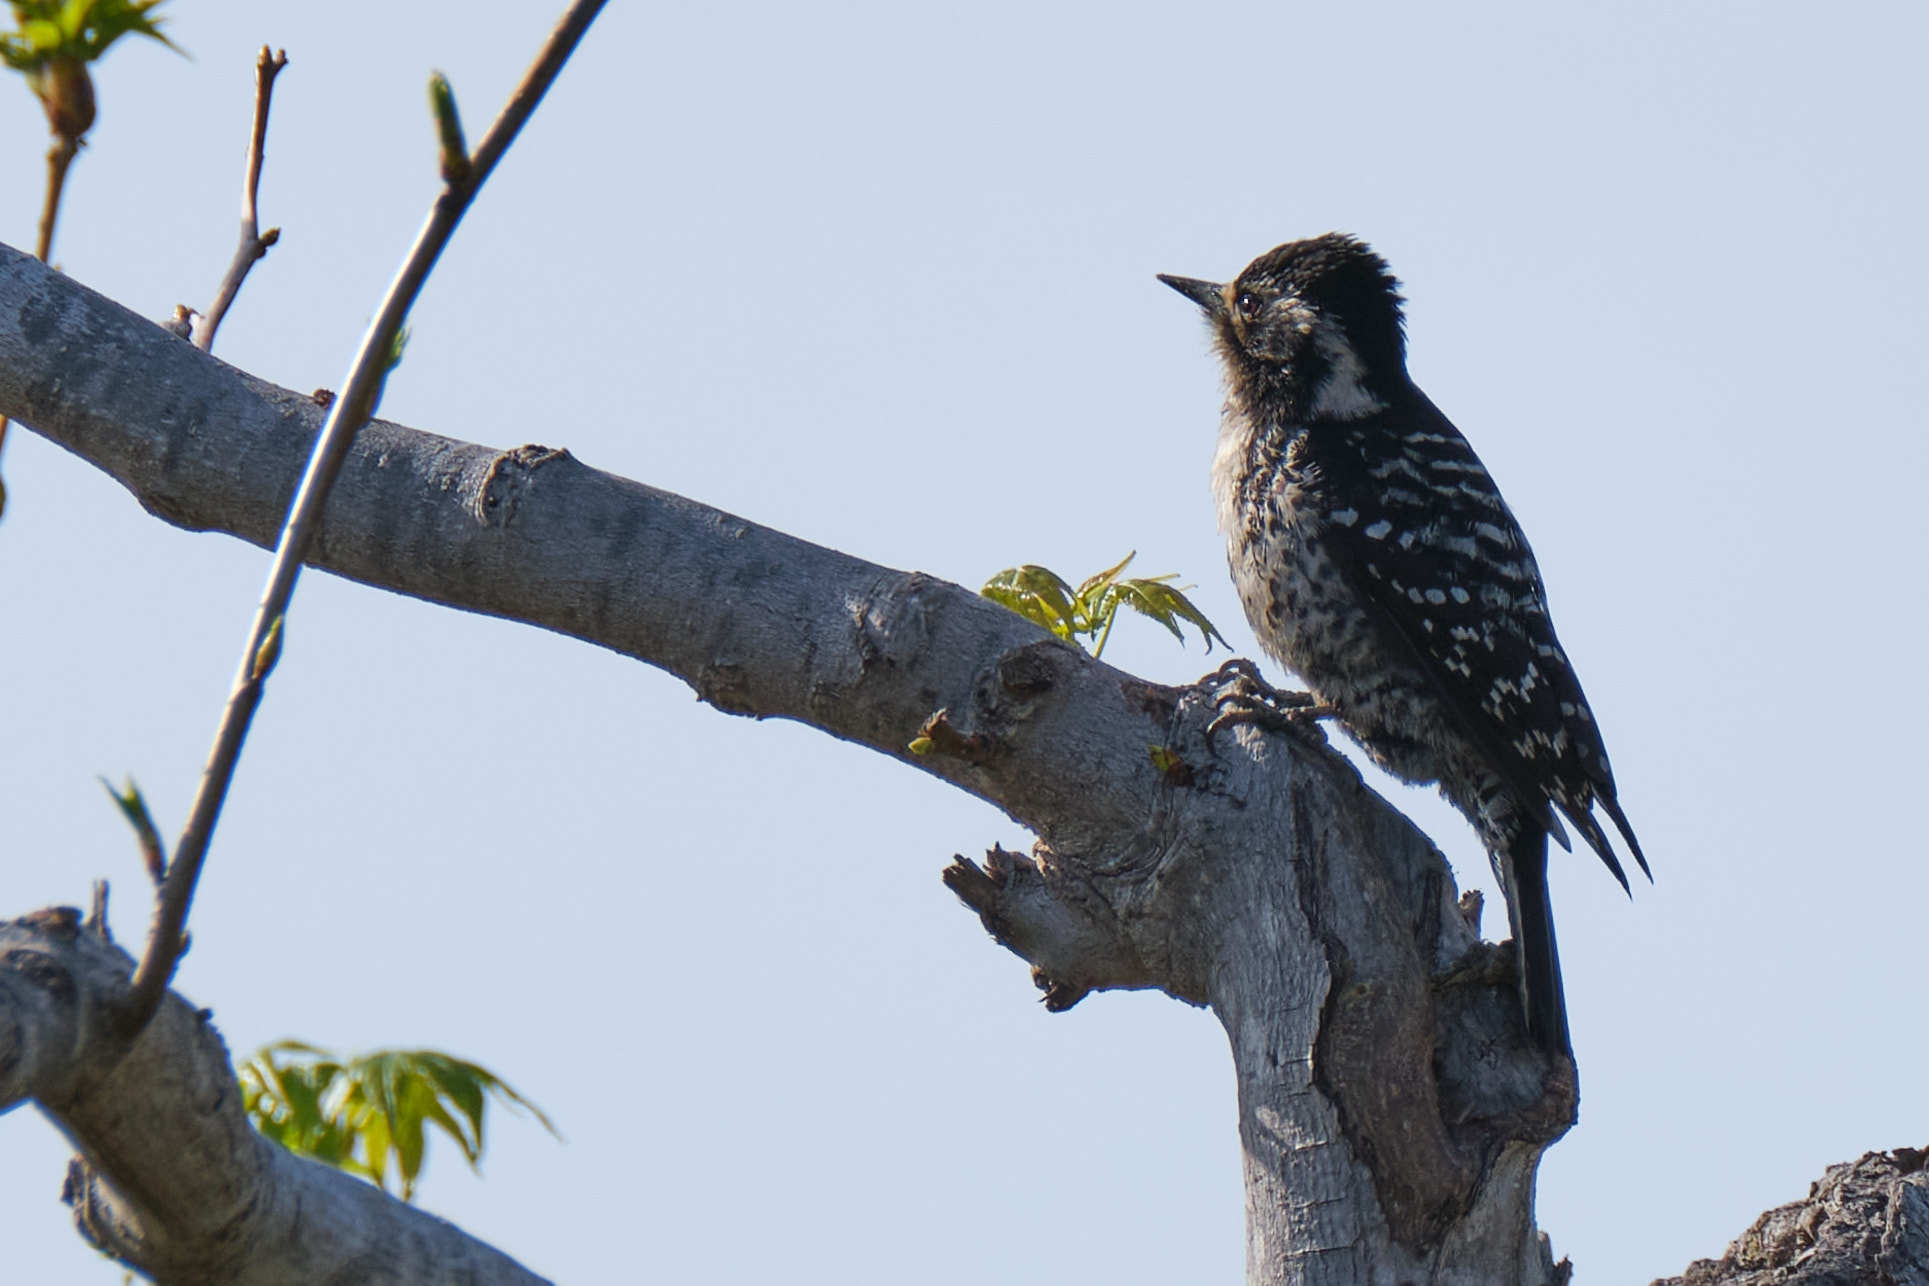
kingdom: Animalia
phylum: Chordata
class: Aves
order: Piciformes
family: Picidae
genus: Dryobates
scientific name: Dryobates nuttallii
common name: Nuttall's woodpecker
